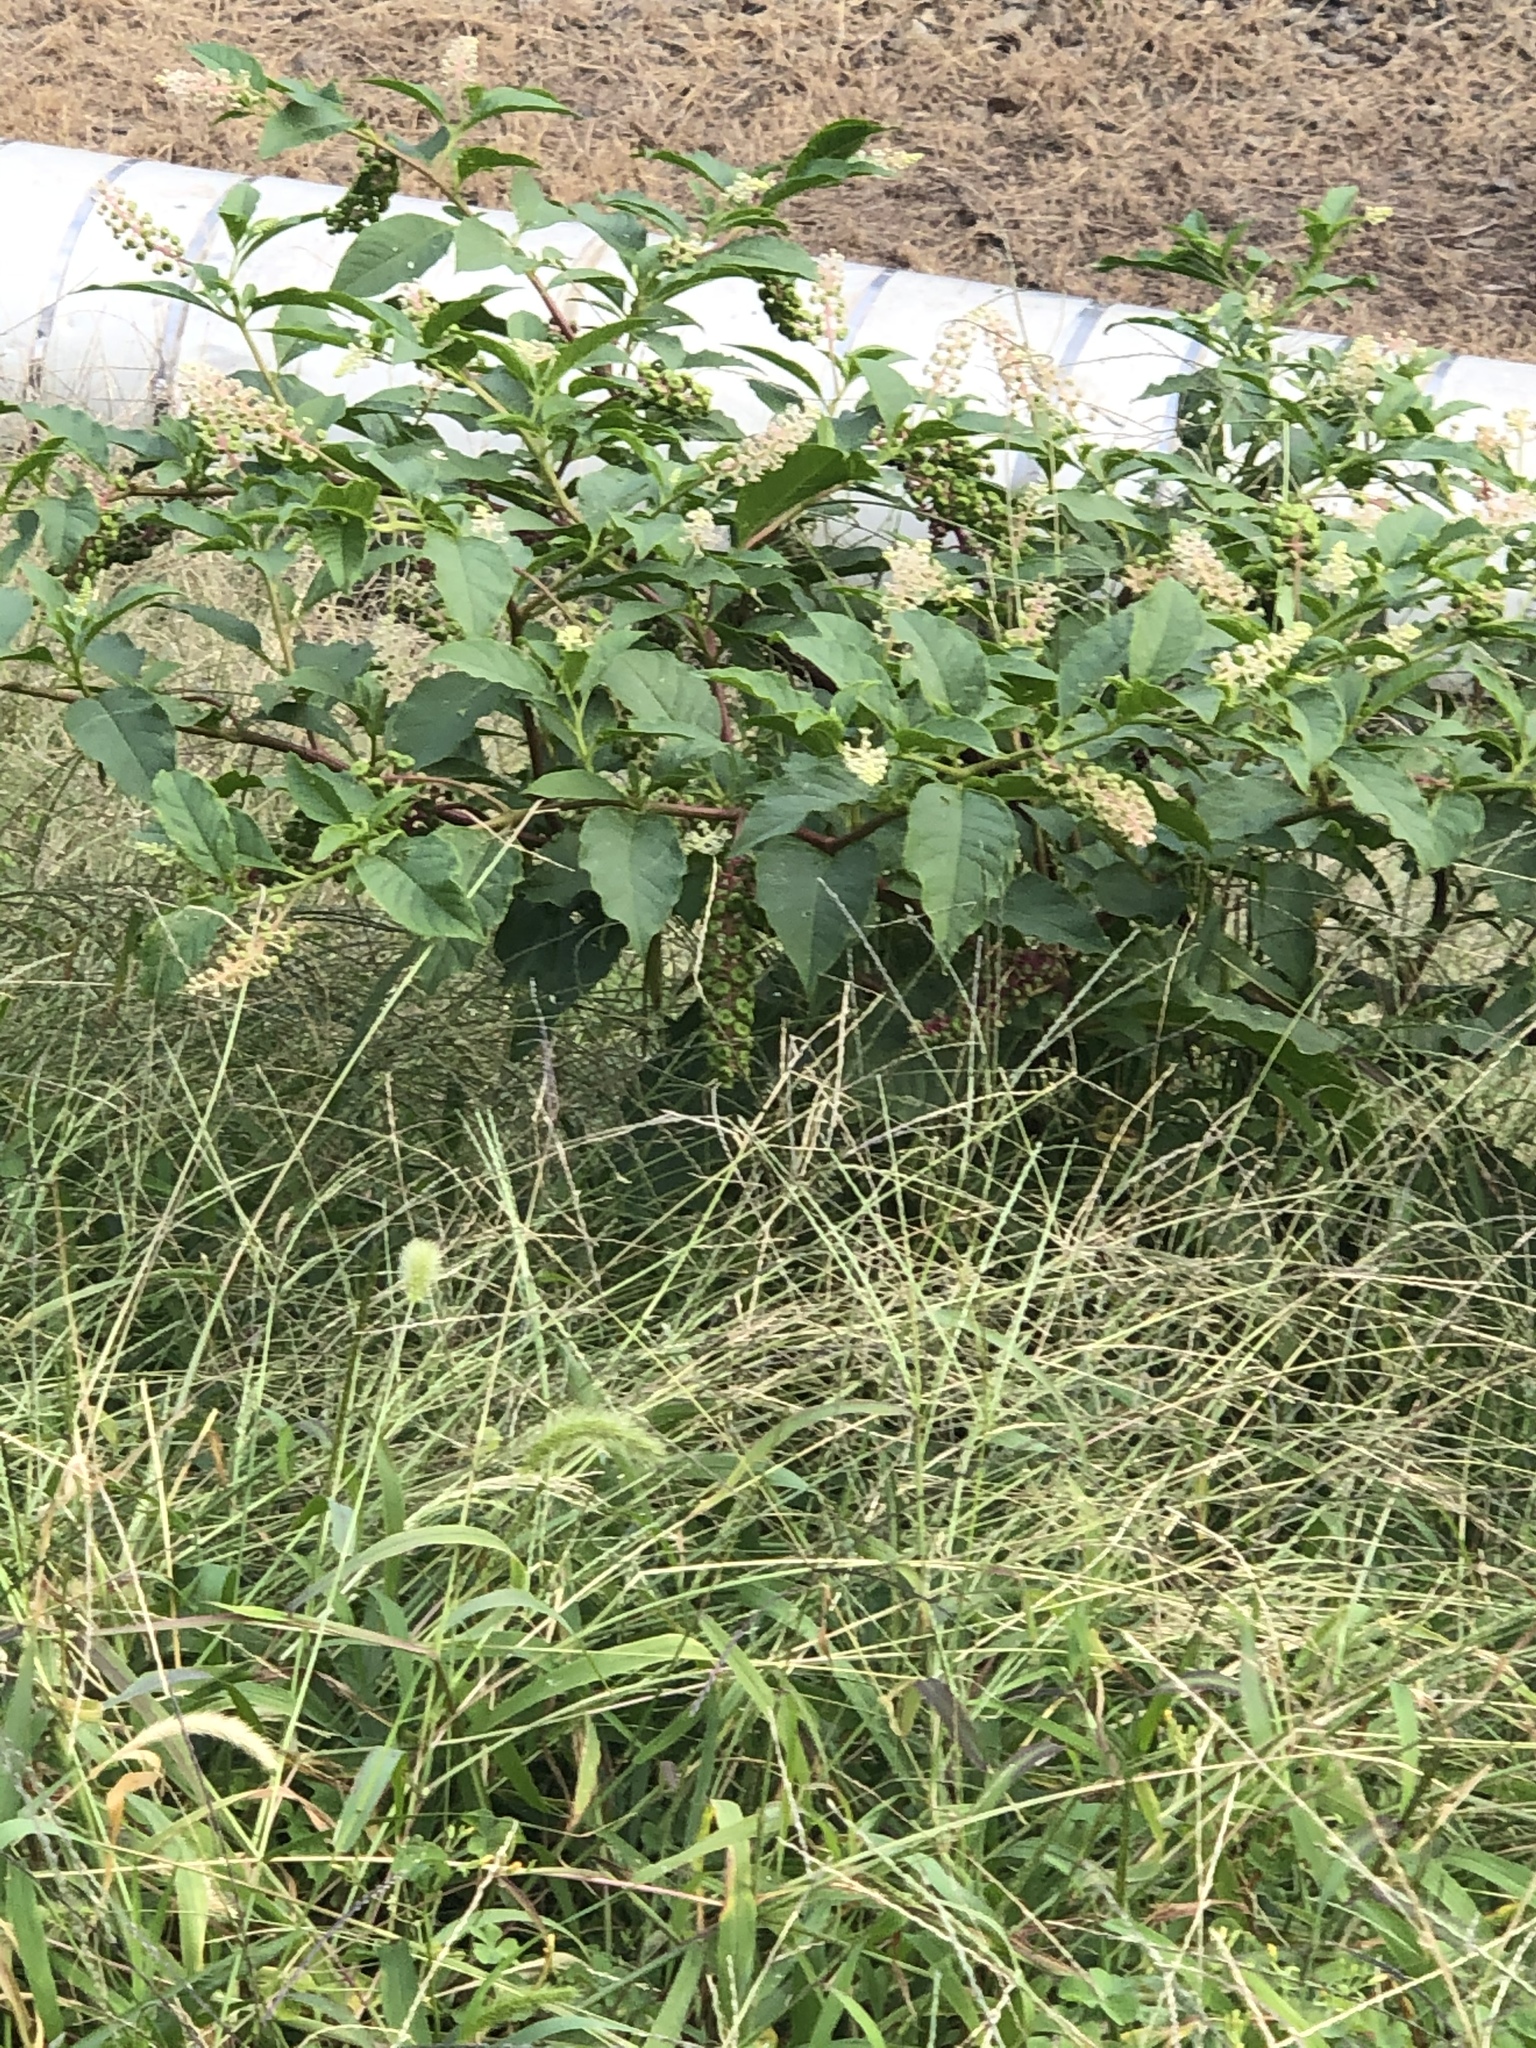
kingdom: Plantae
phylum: Tracheophyta
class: Magnoliopsida
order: Caryophyllales
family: Phytolaccaceae
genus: Phytolacca
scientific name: Phytolacca americana
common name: American pokeweed
